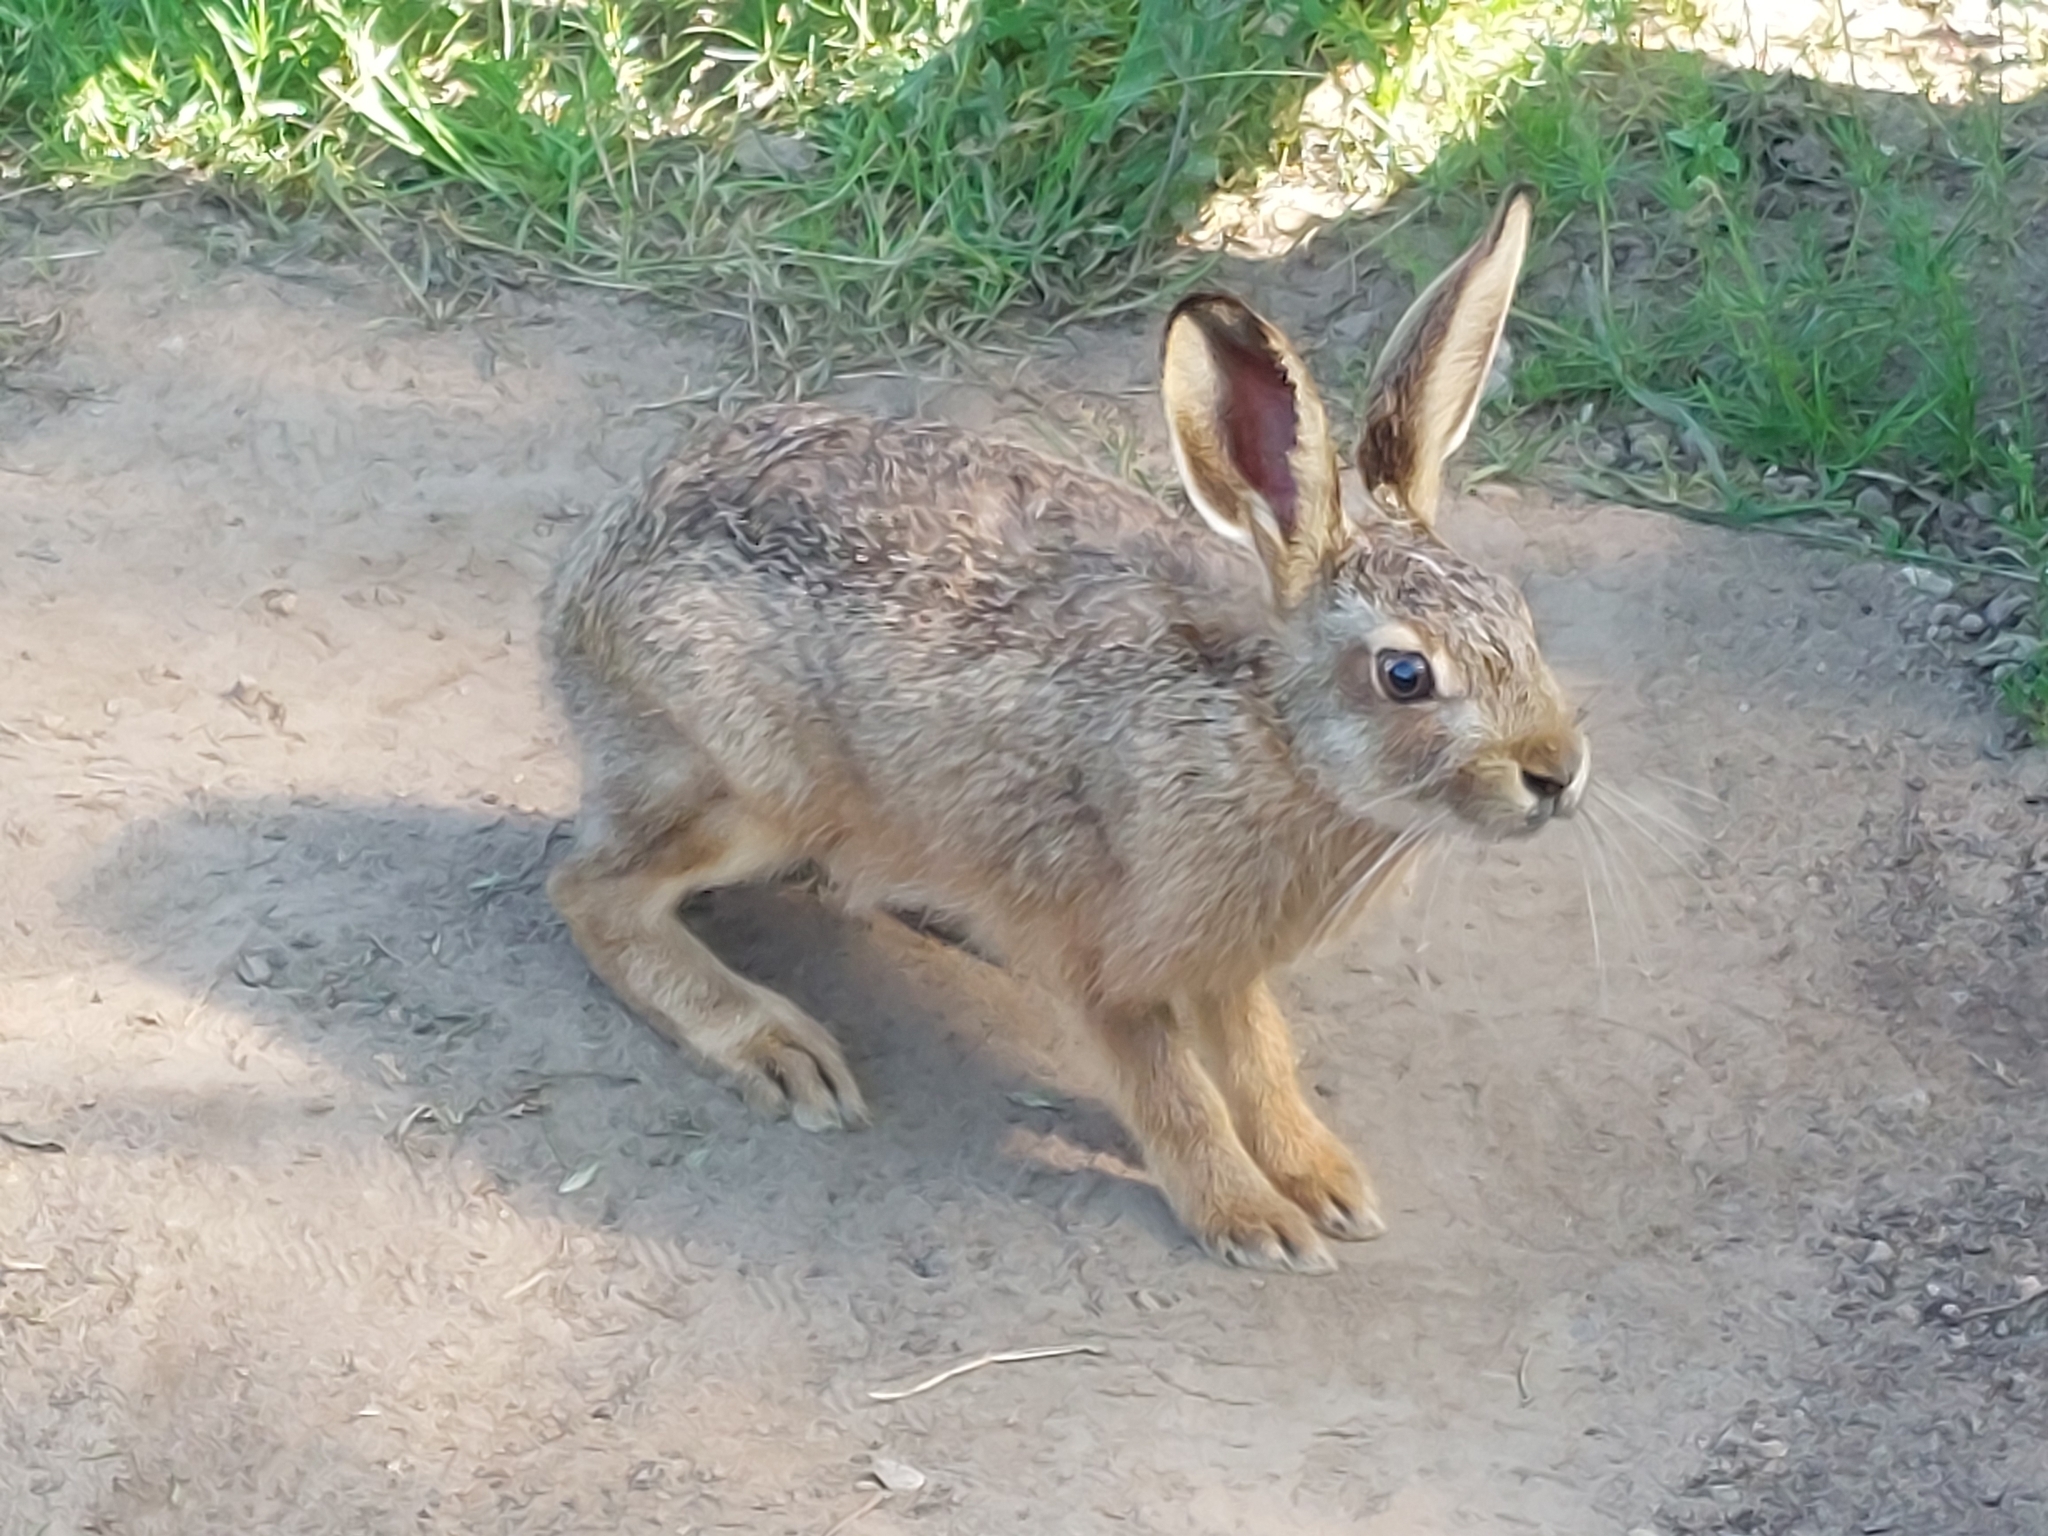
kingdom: Animalia
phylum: Chordata
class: Mammalia
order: Lagomorpha
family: Leporidae
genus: Lepus
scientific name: Lepus europaeus
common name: European hare
